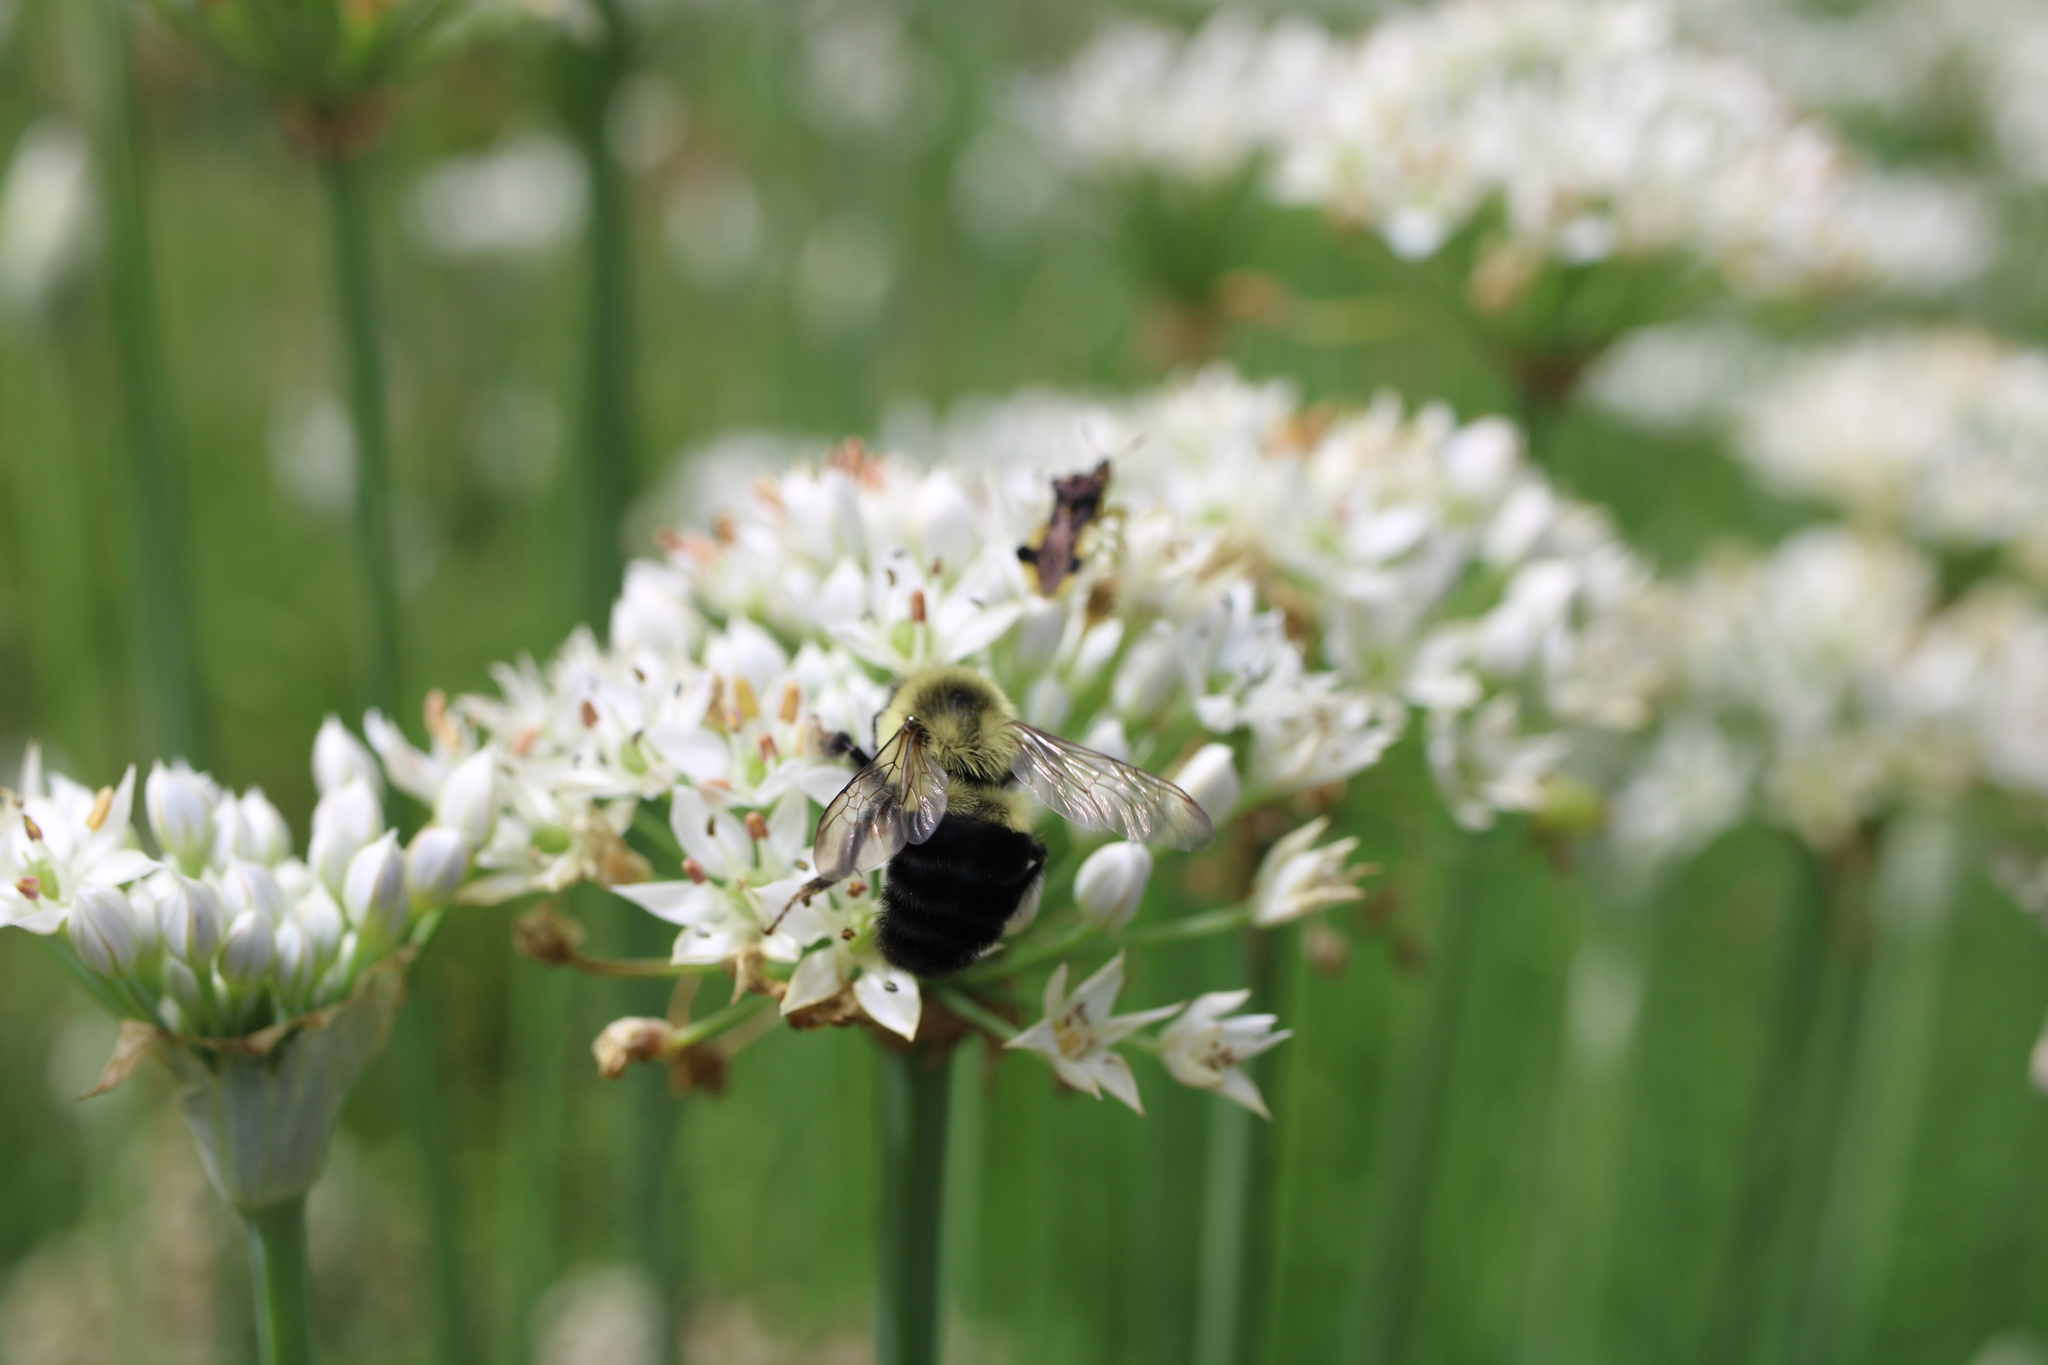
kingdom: Animalia
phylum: Arthropoda
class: Insecta
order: Hymenoptera
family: Apidae
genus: Bombus
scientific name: Bombus impatiens
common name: Common eastern bumble bee
